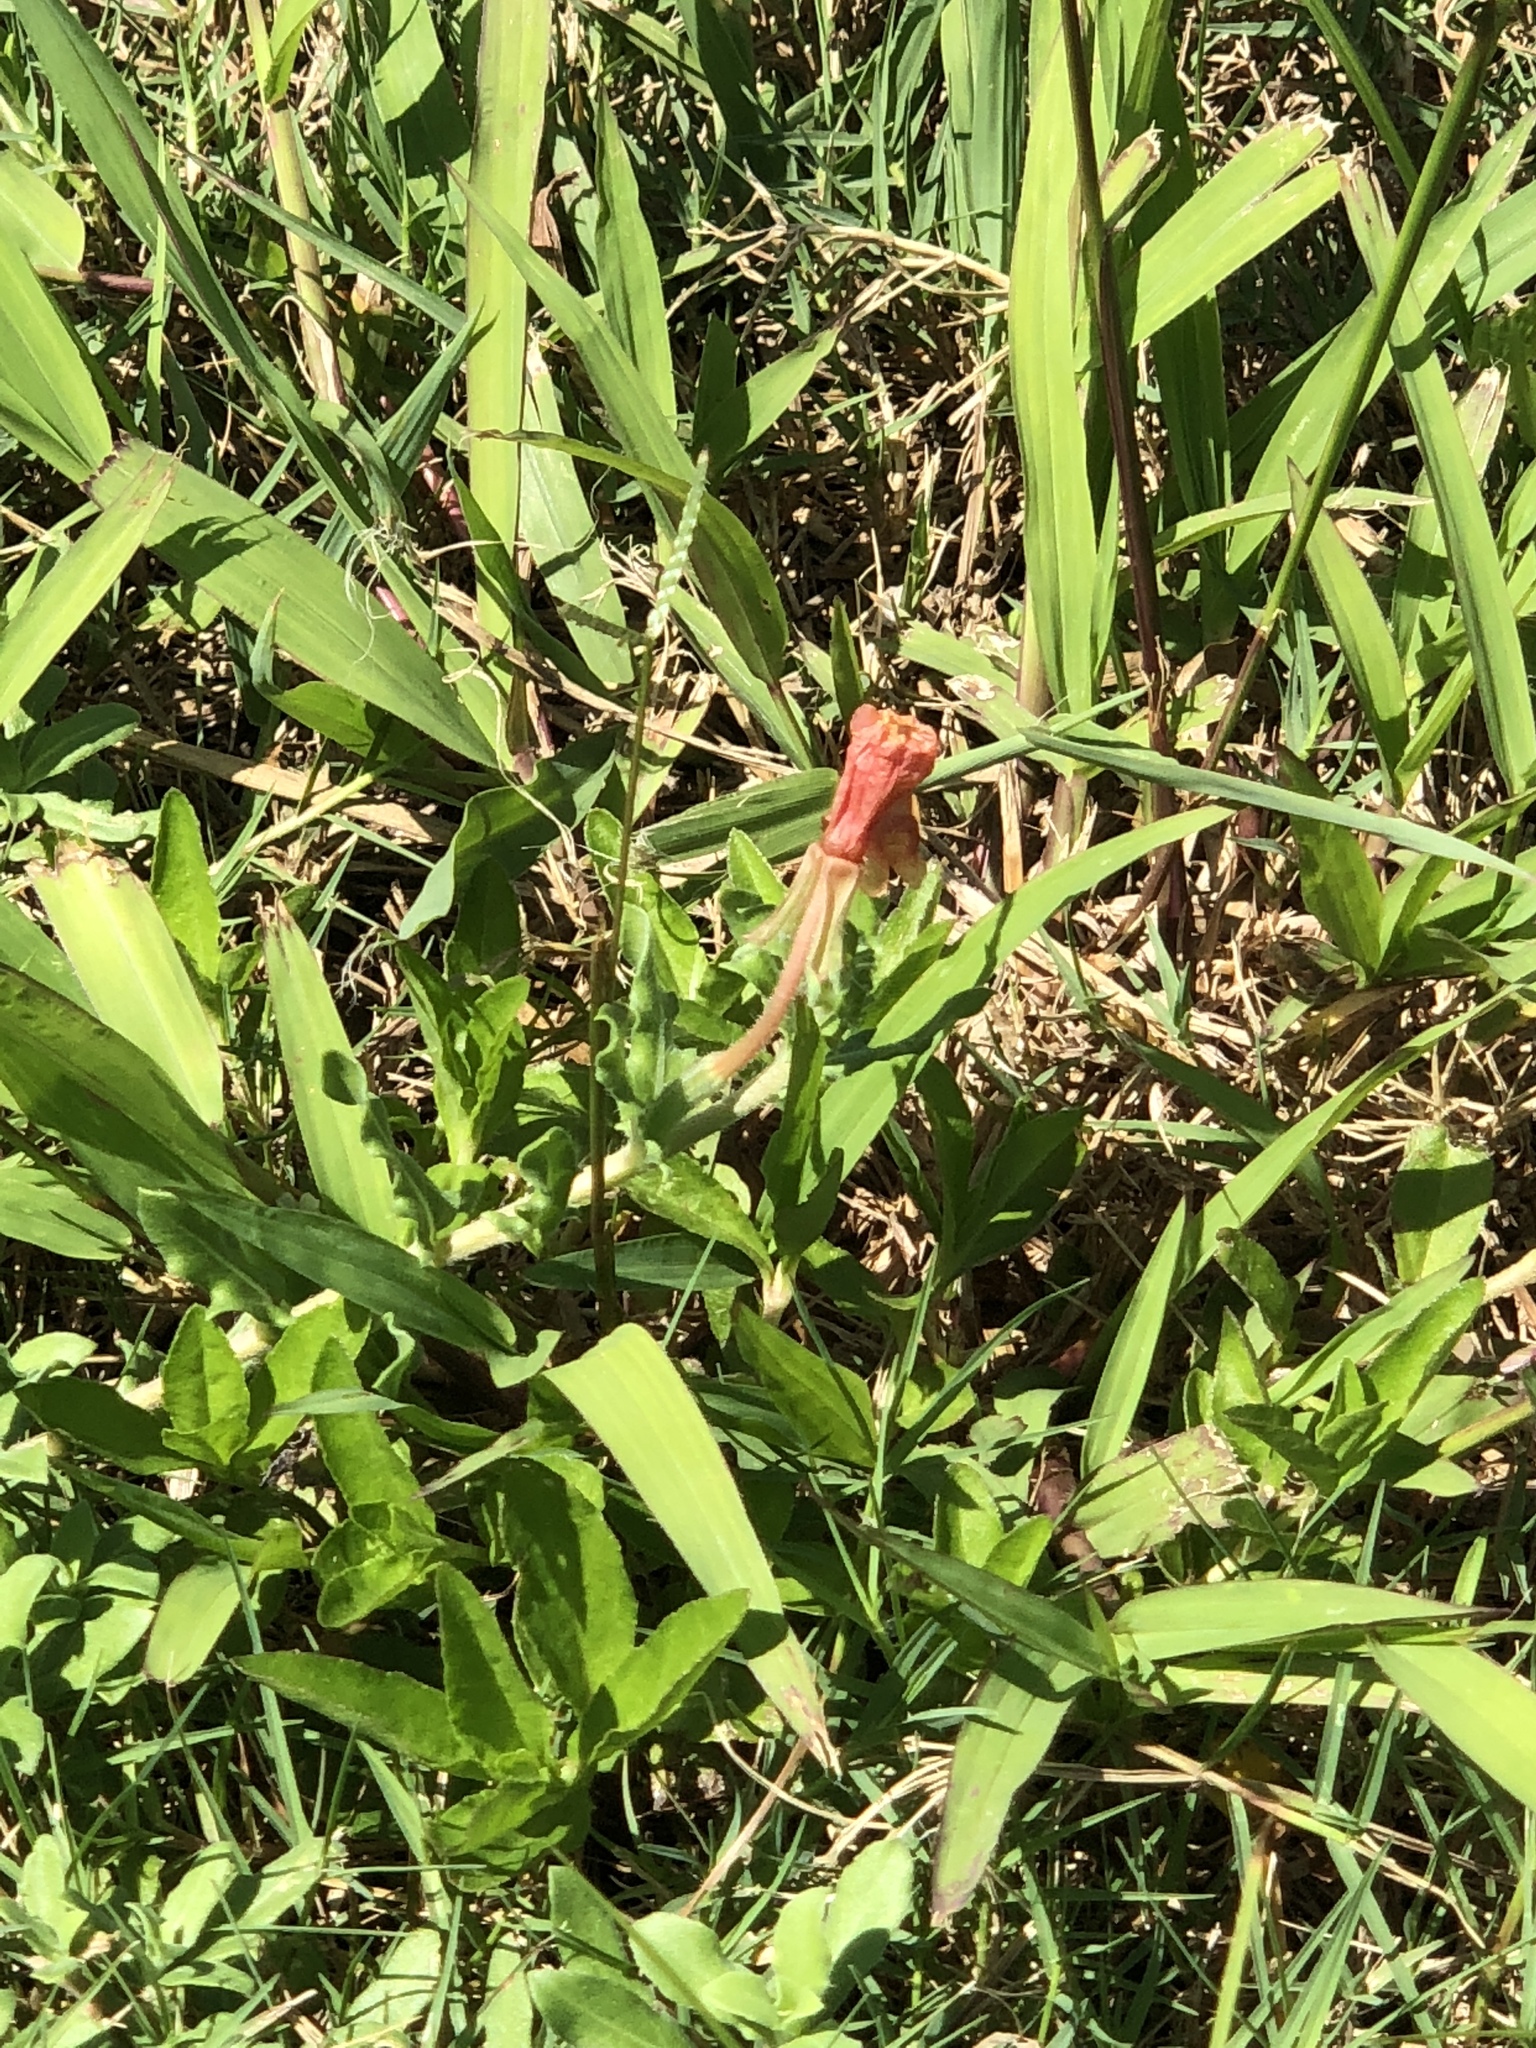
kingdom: Plantae
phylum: Tracheophyta
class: Magnoliopsida
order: Myrtales
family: Onagraceae
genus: Oenothera
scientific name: Oenothera laciniata
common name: Cut-leaved evening-primrose
